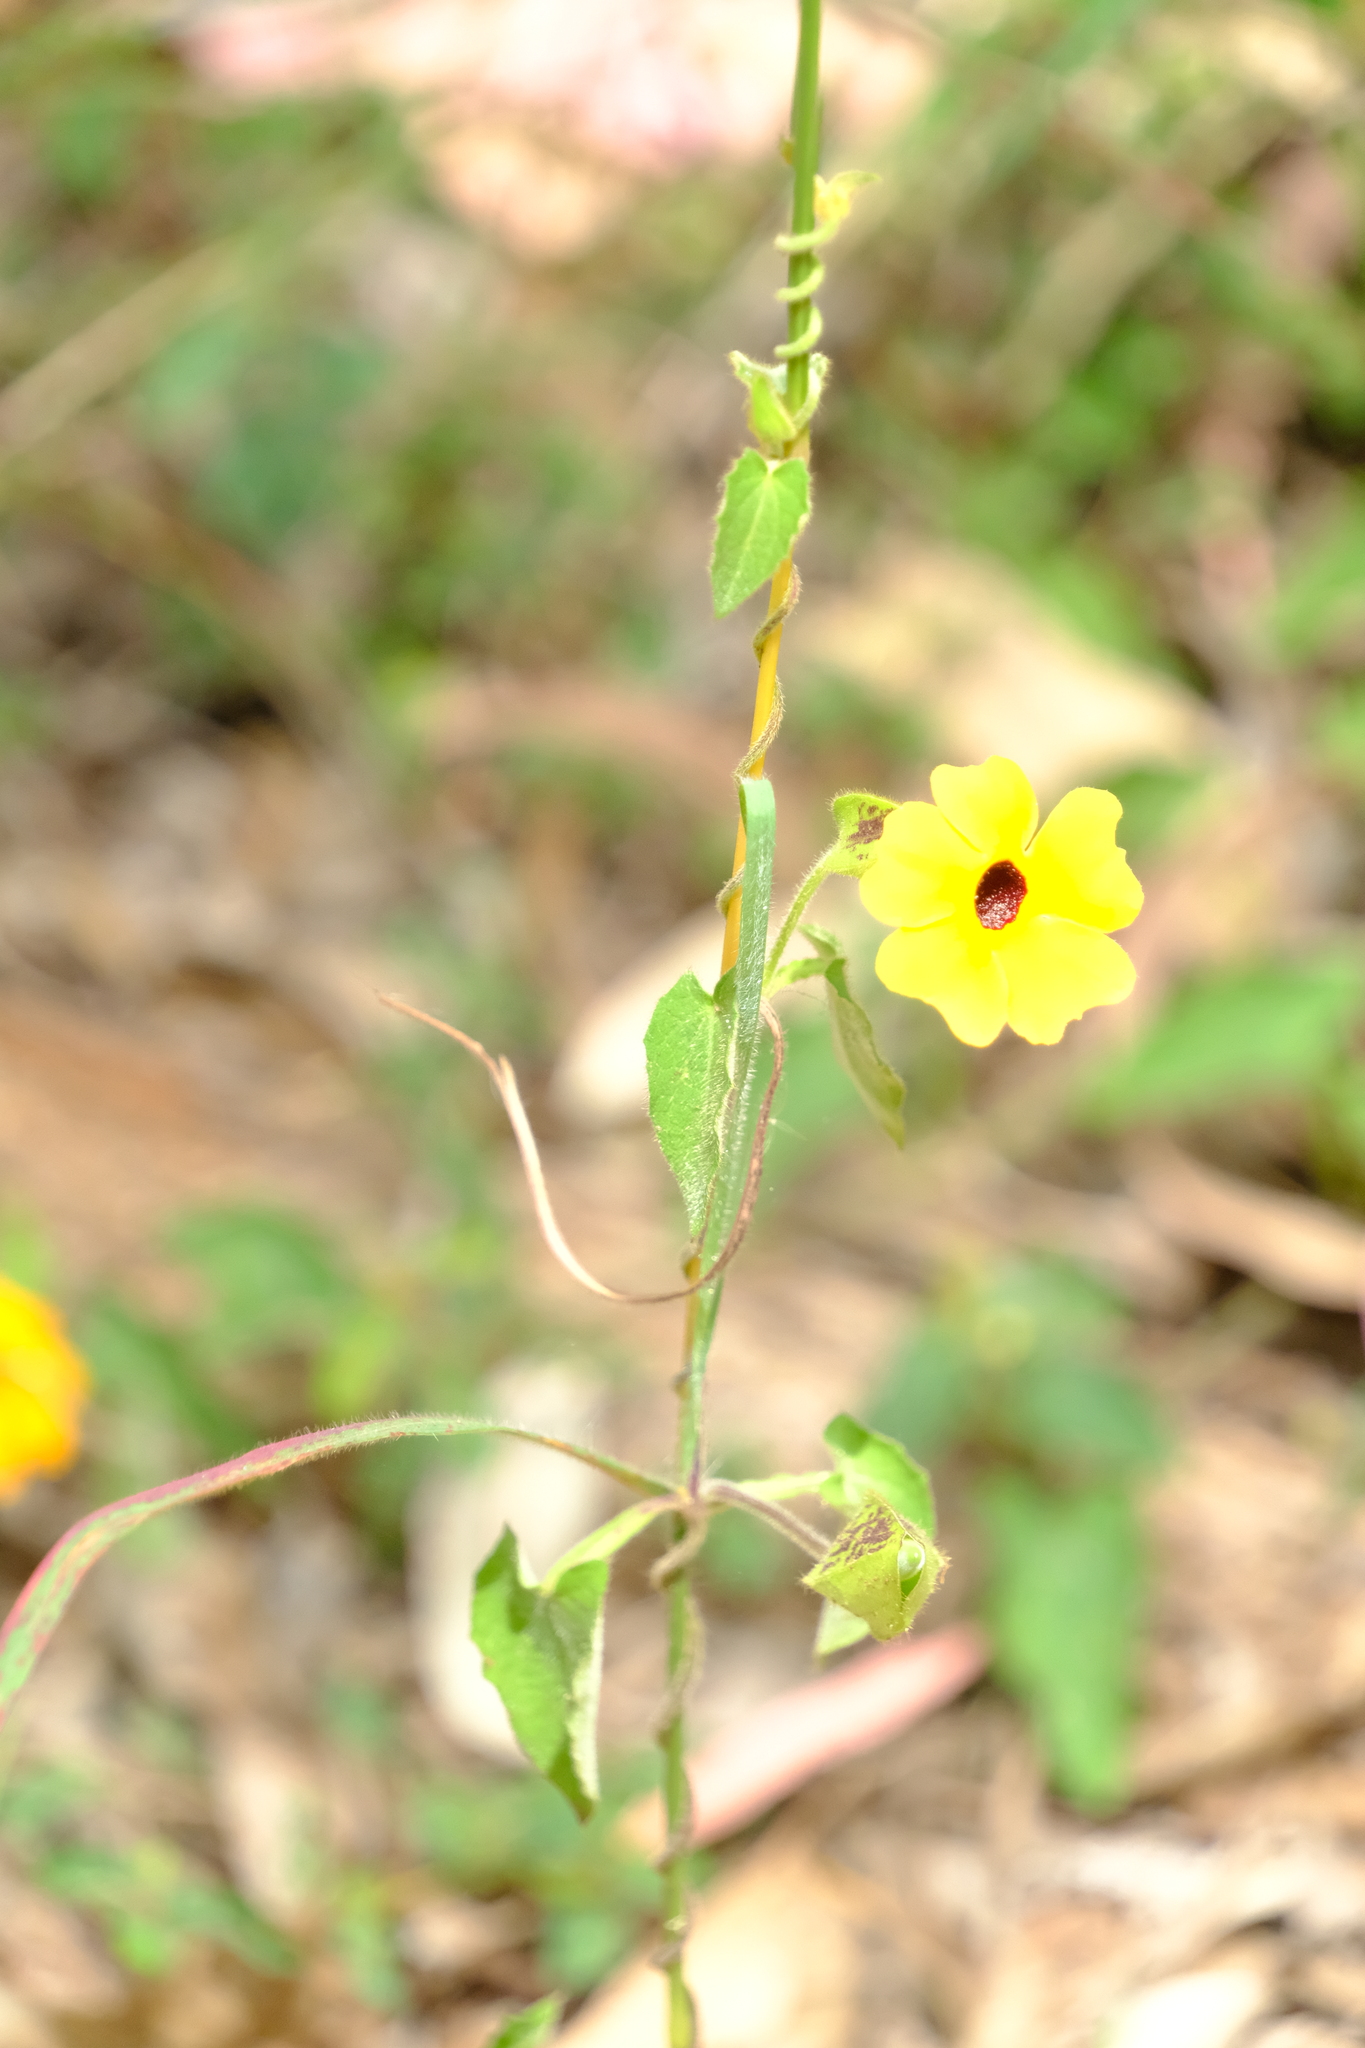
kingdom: Plantae
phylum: Tracheophyta
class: Magnoliopsida
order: Lamiales
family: Acanthaceae
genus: Thunbergia
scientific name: Thunbergia alata
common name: Blackeyed susan vine
